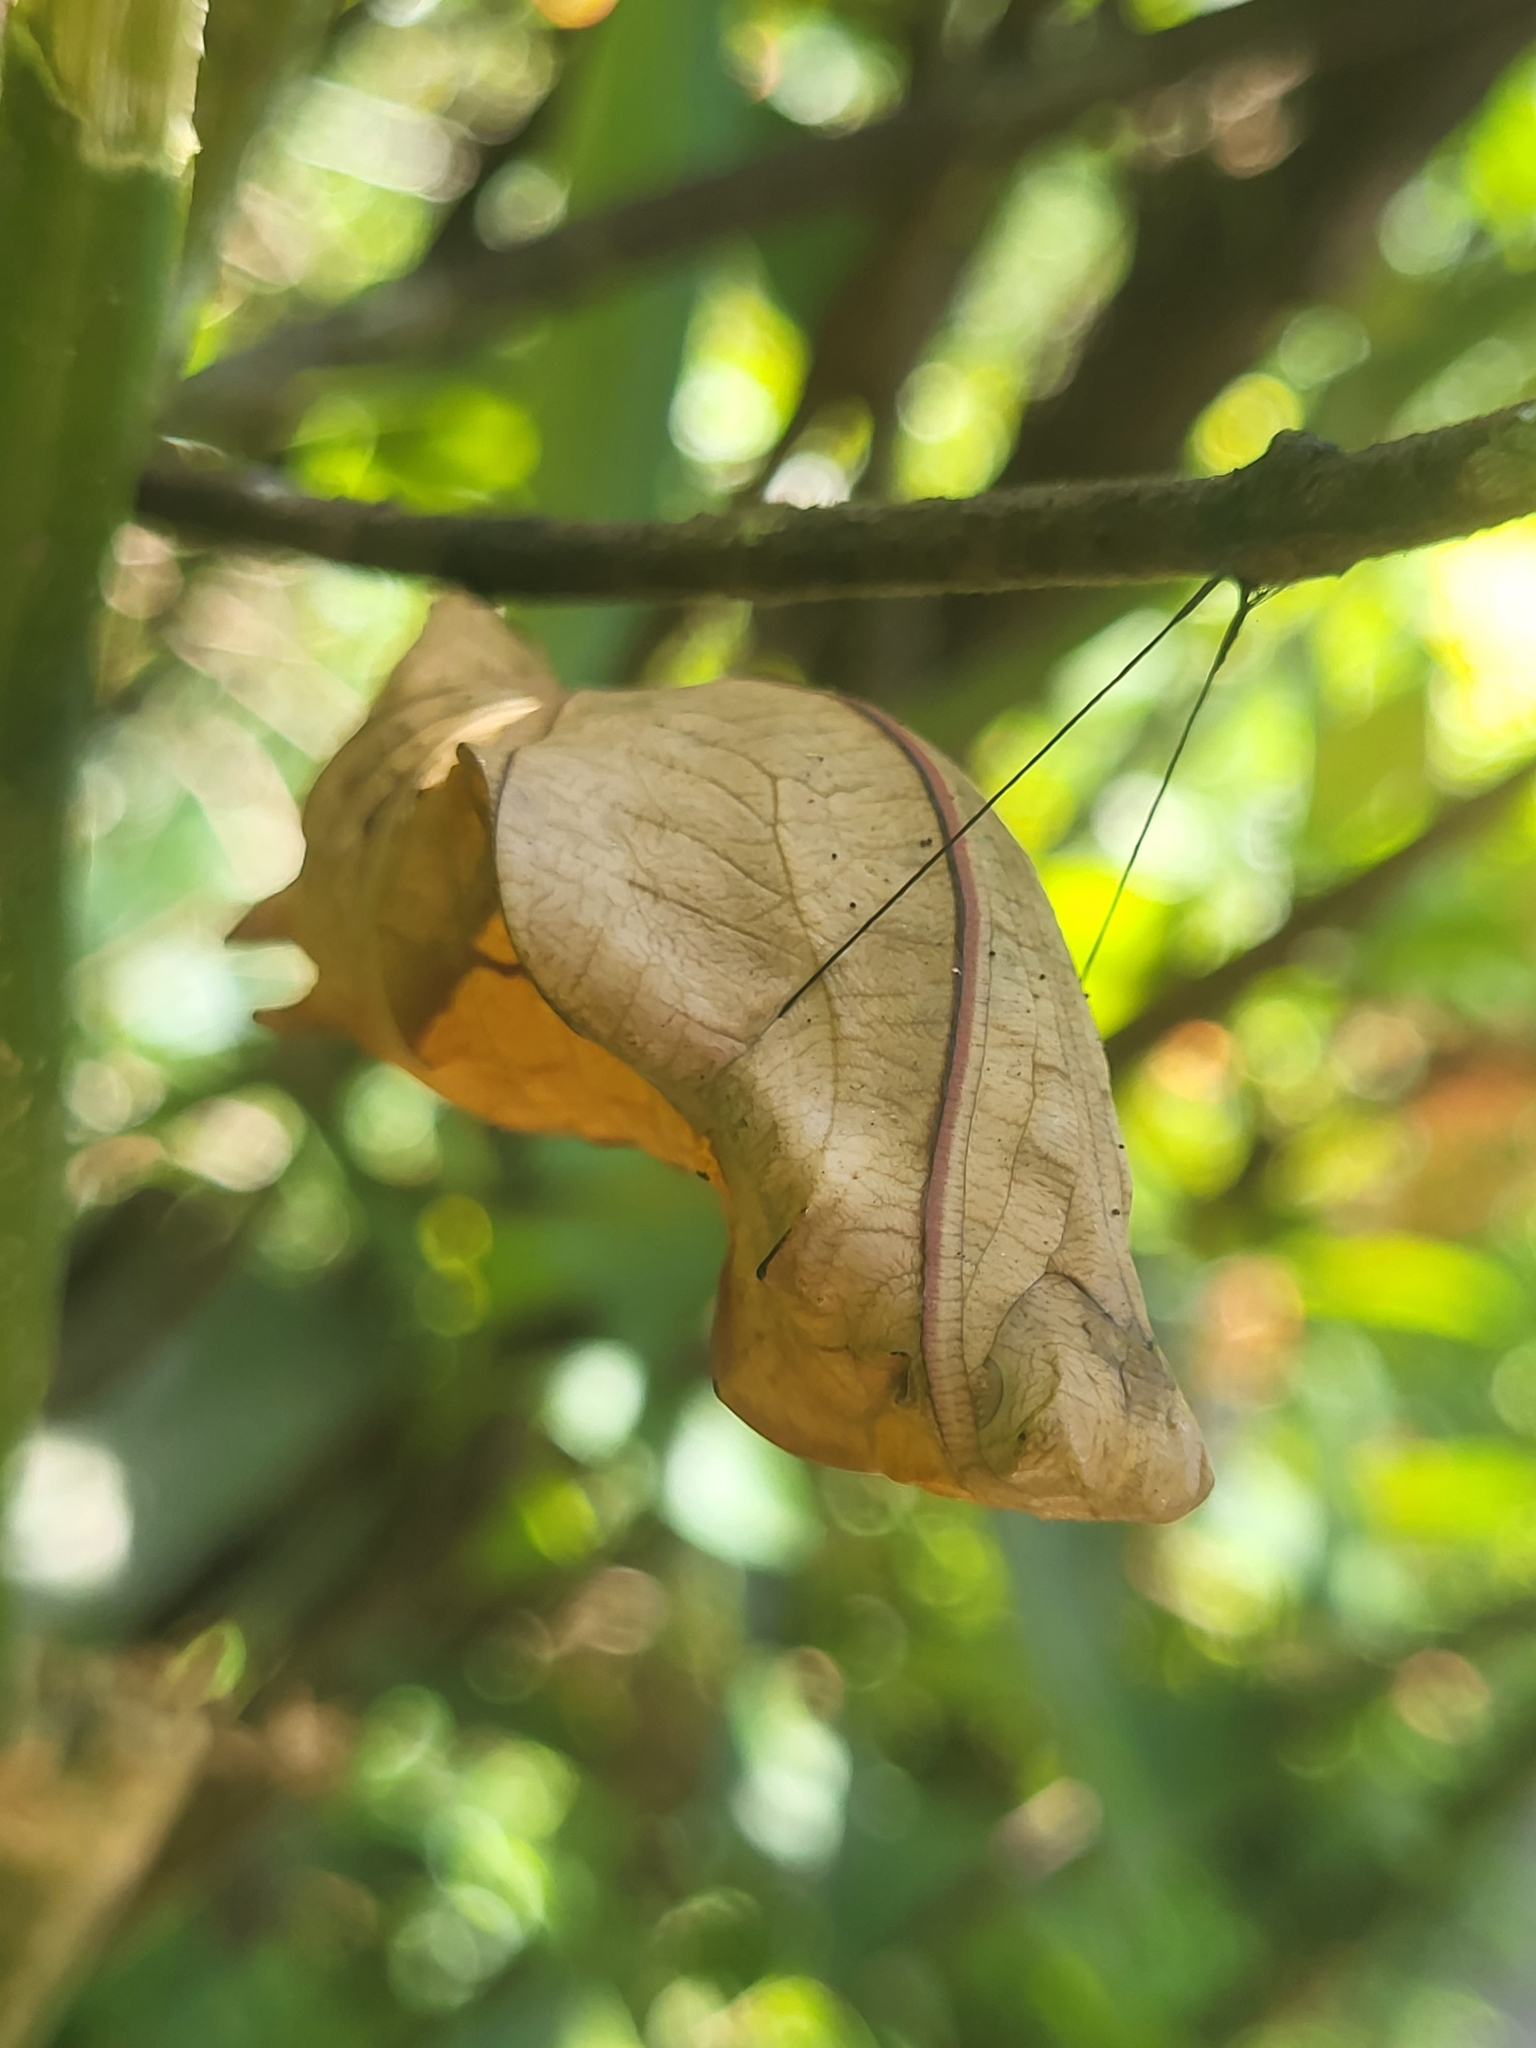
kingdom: Animalia
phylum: Arthropoda
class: Insecta
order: Lepidoptera
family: Papilionidae
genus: Troides
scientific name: Troides minos
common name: Malabar birdwing
